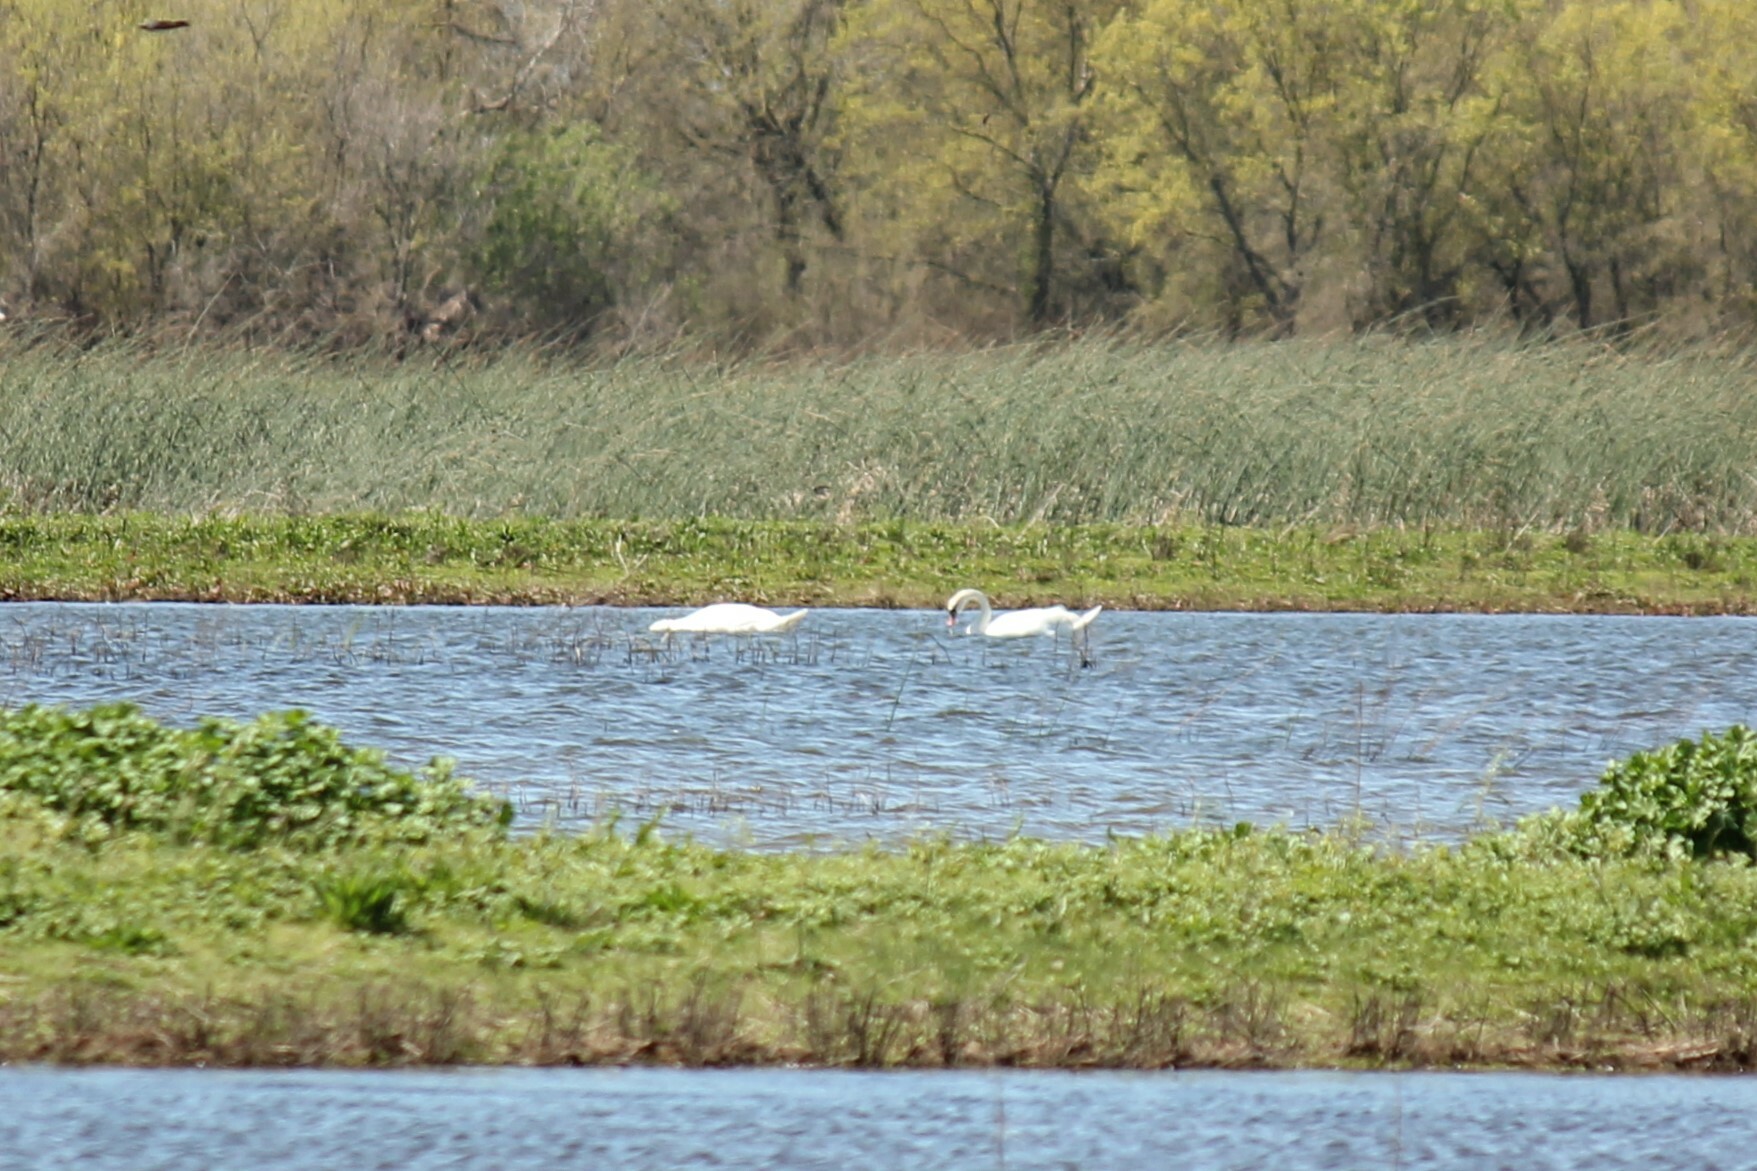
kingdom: Animalia
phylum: Chordata
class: Aves
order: Anseriformes
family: Anatidae
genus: Cygnus
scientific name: Cygnus olor
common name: Mute swan
